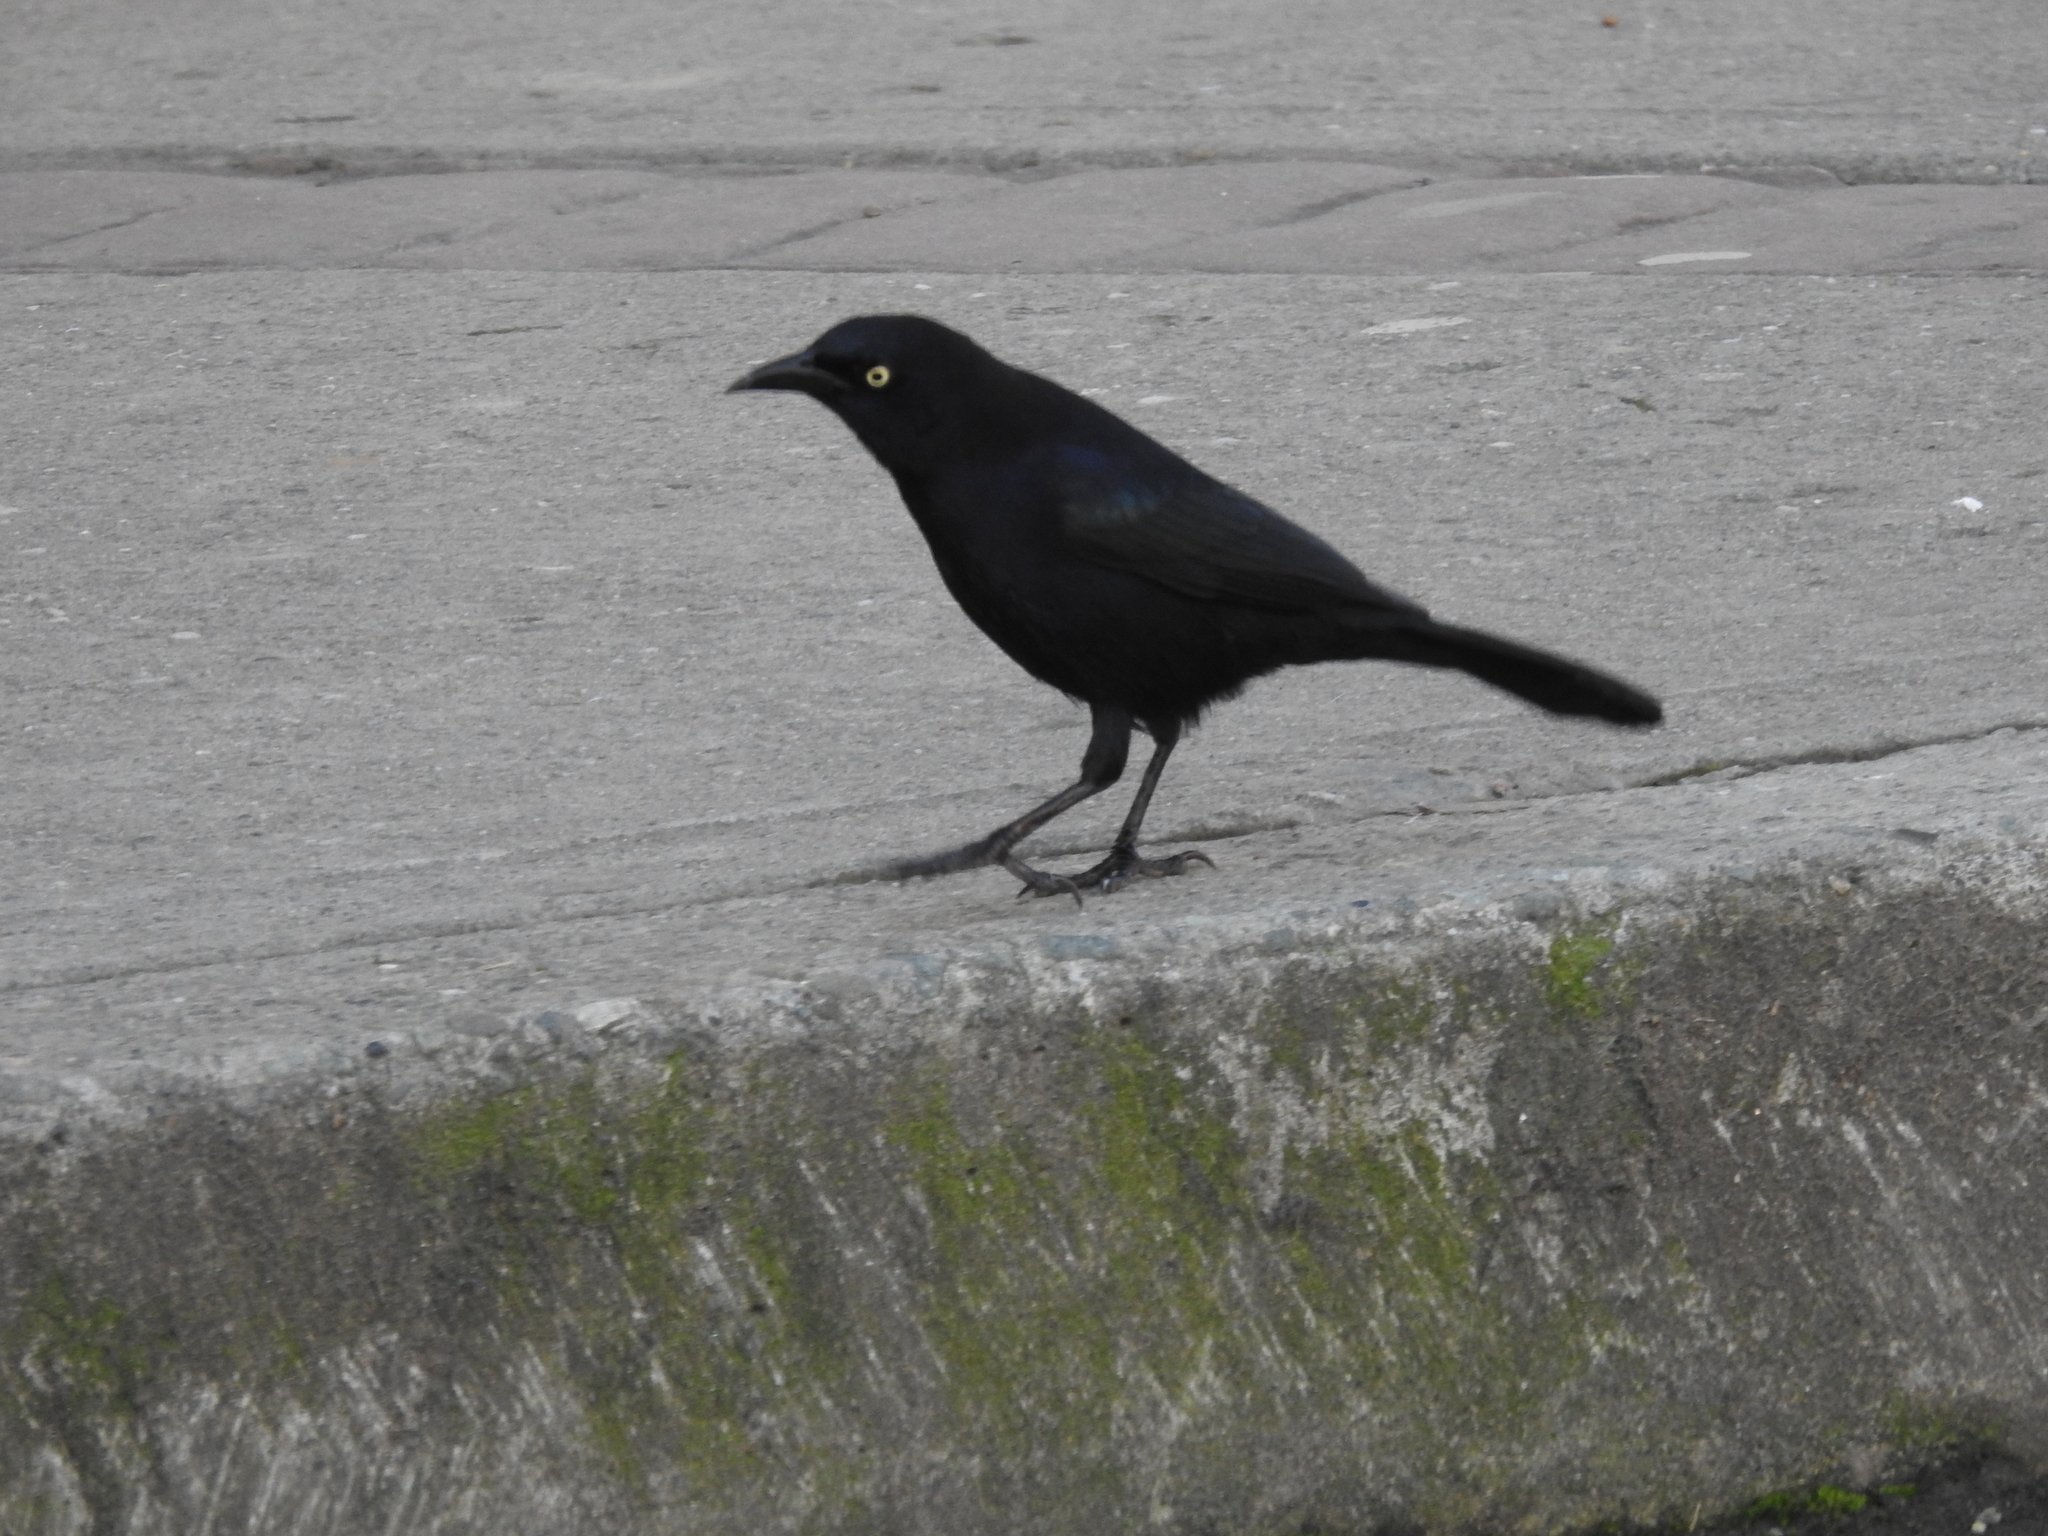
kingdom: Animalia
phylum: Chordata
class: Aves
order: Passeriformes
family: Icteridae
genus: Quiscalus
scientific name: Quiscalus lugubris
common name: Carib grackle
